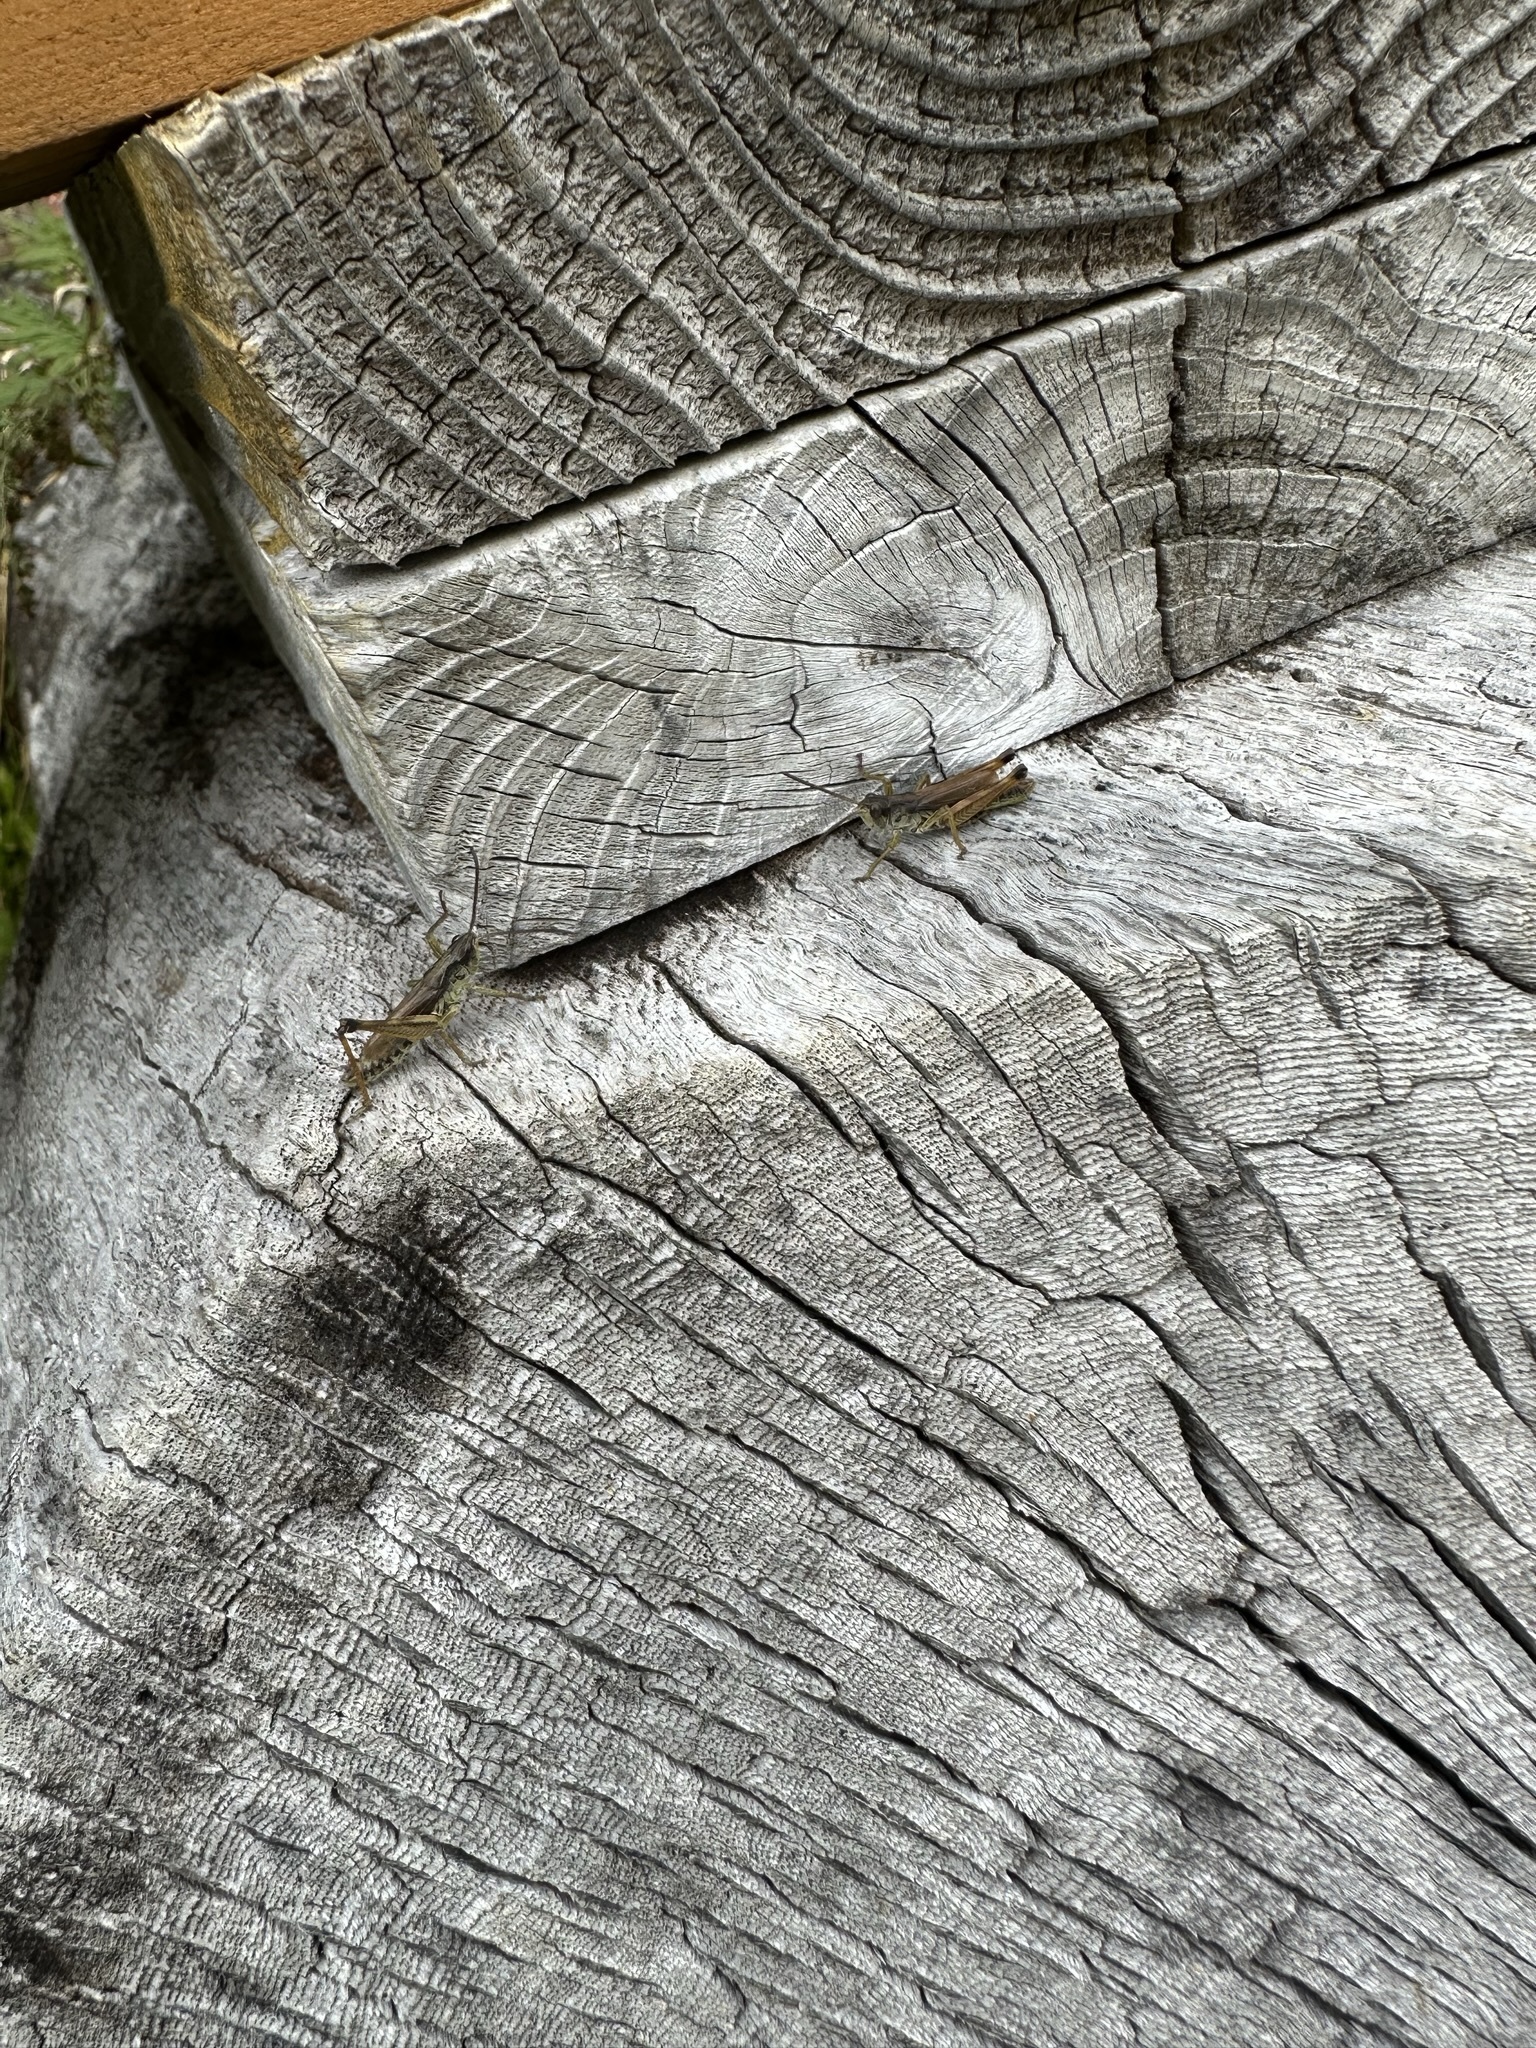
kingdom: Animalia
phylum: Arthropoda
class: Insecta
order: Orthoptera
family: Acrididae
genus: Chorthippus
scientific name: Chorthippus fallax
